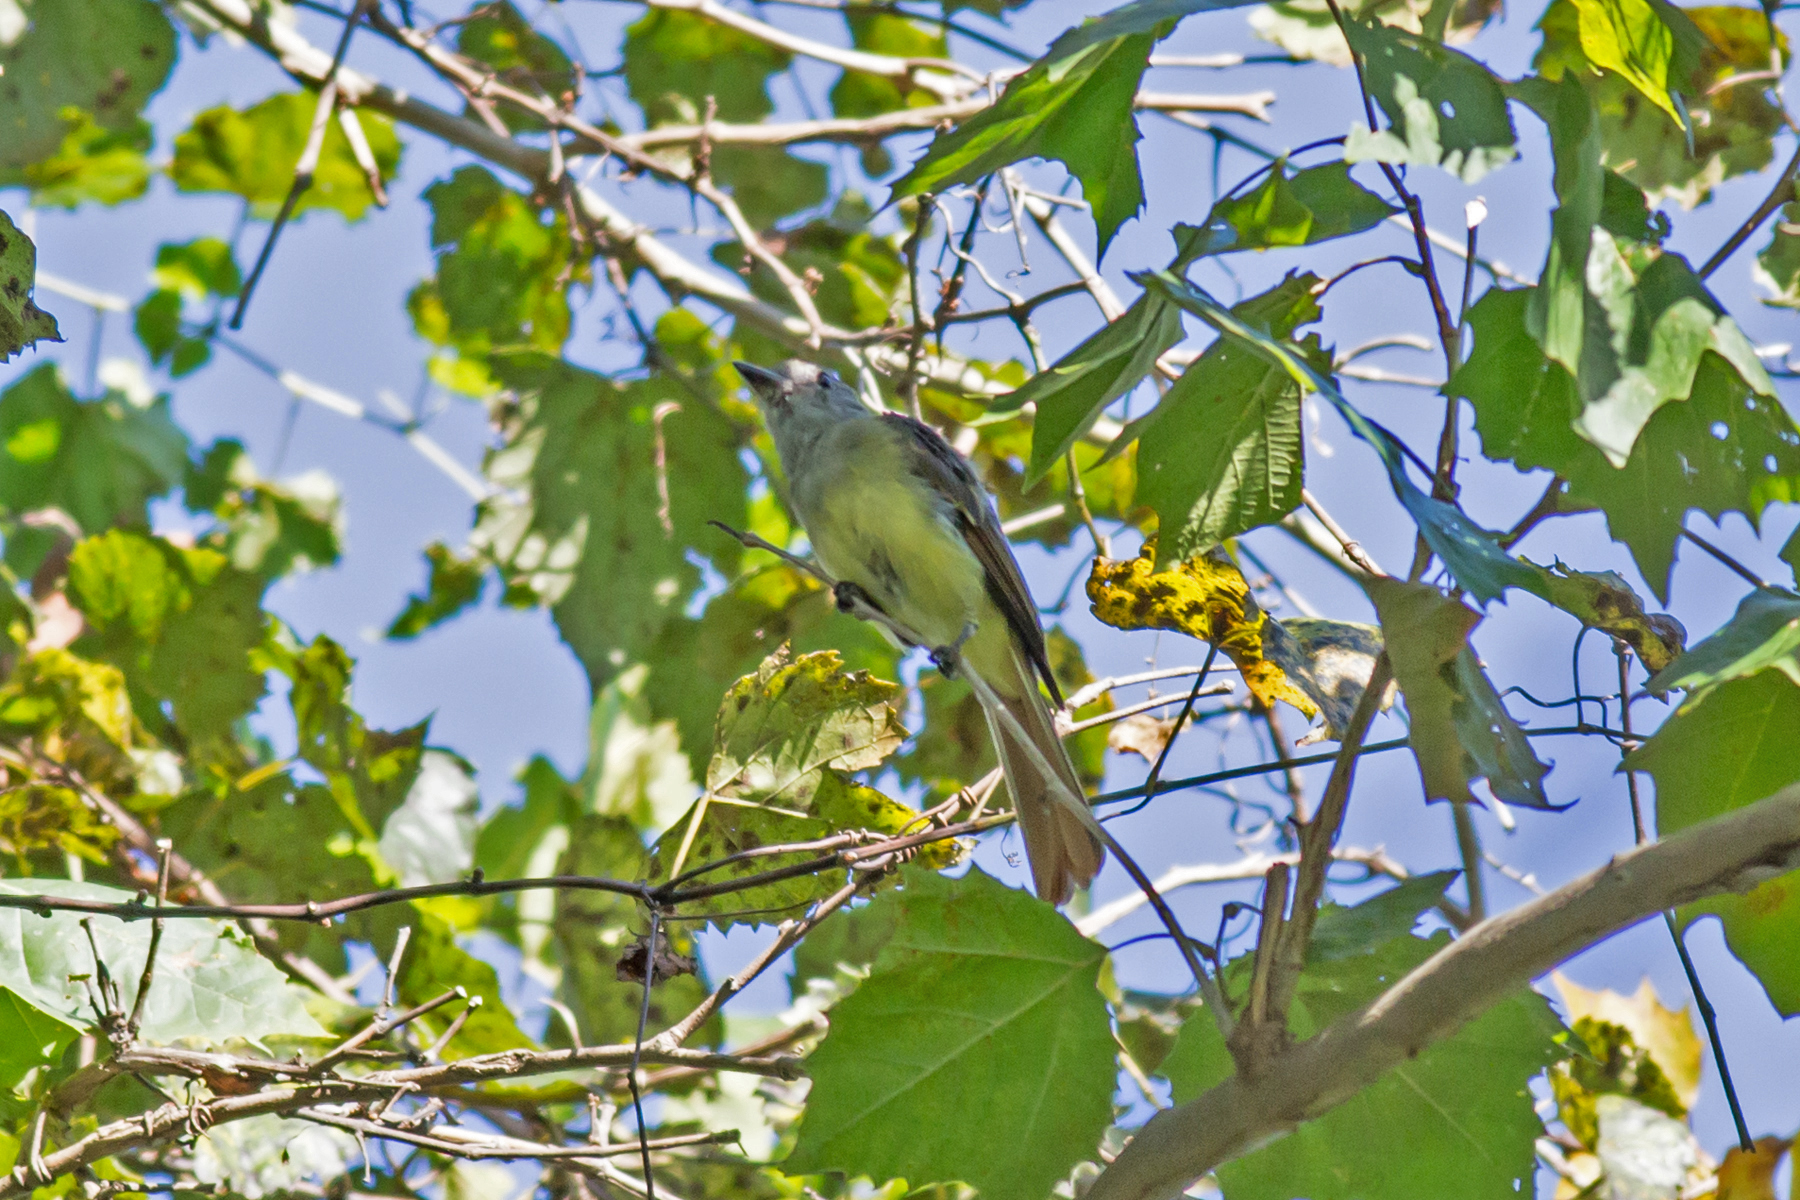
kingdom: Animalia
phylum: Chordata
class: Aves
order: Passeriformes
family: Tyrannidae
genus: Myiarchus
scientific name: Myiarchus crinitus
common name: Great crested flycatcher
